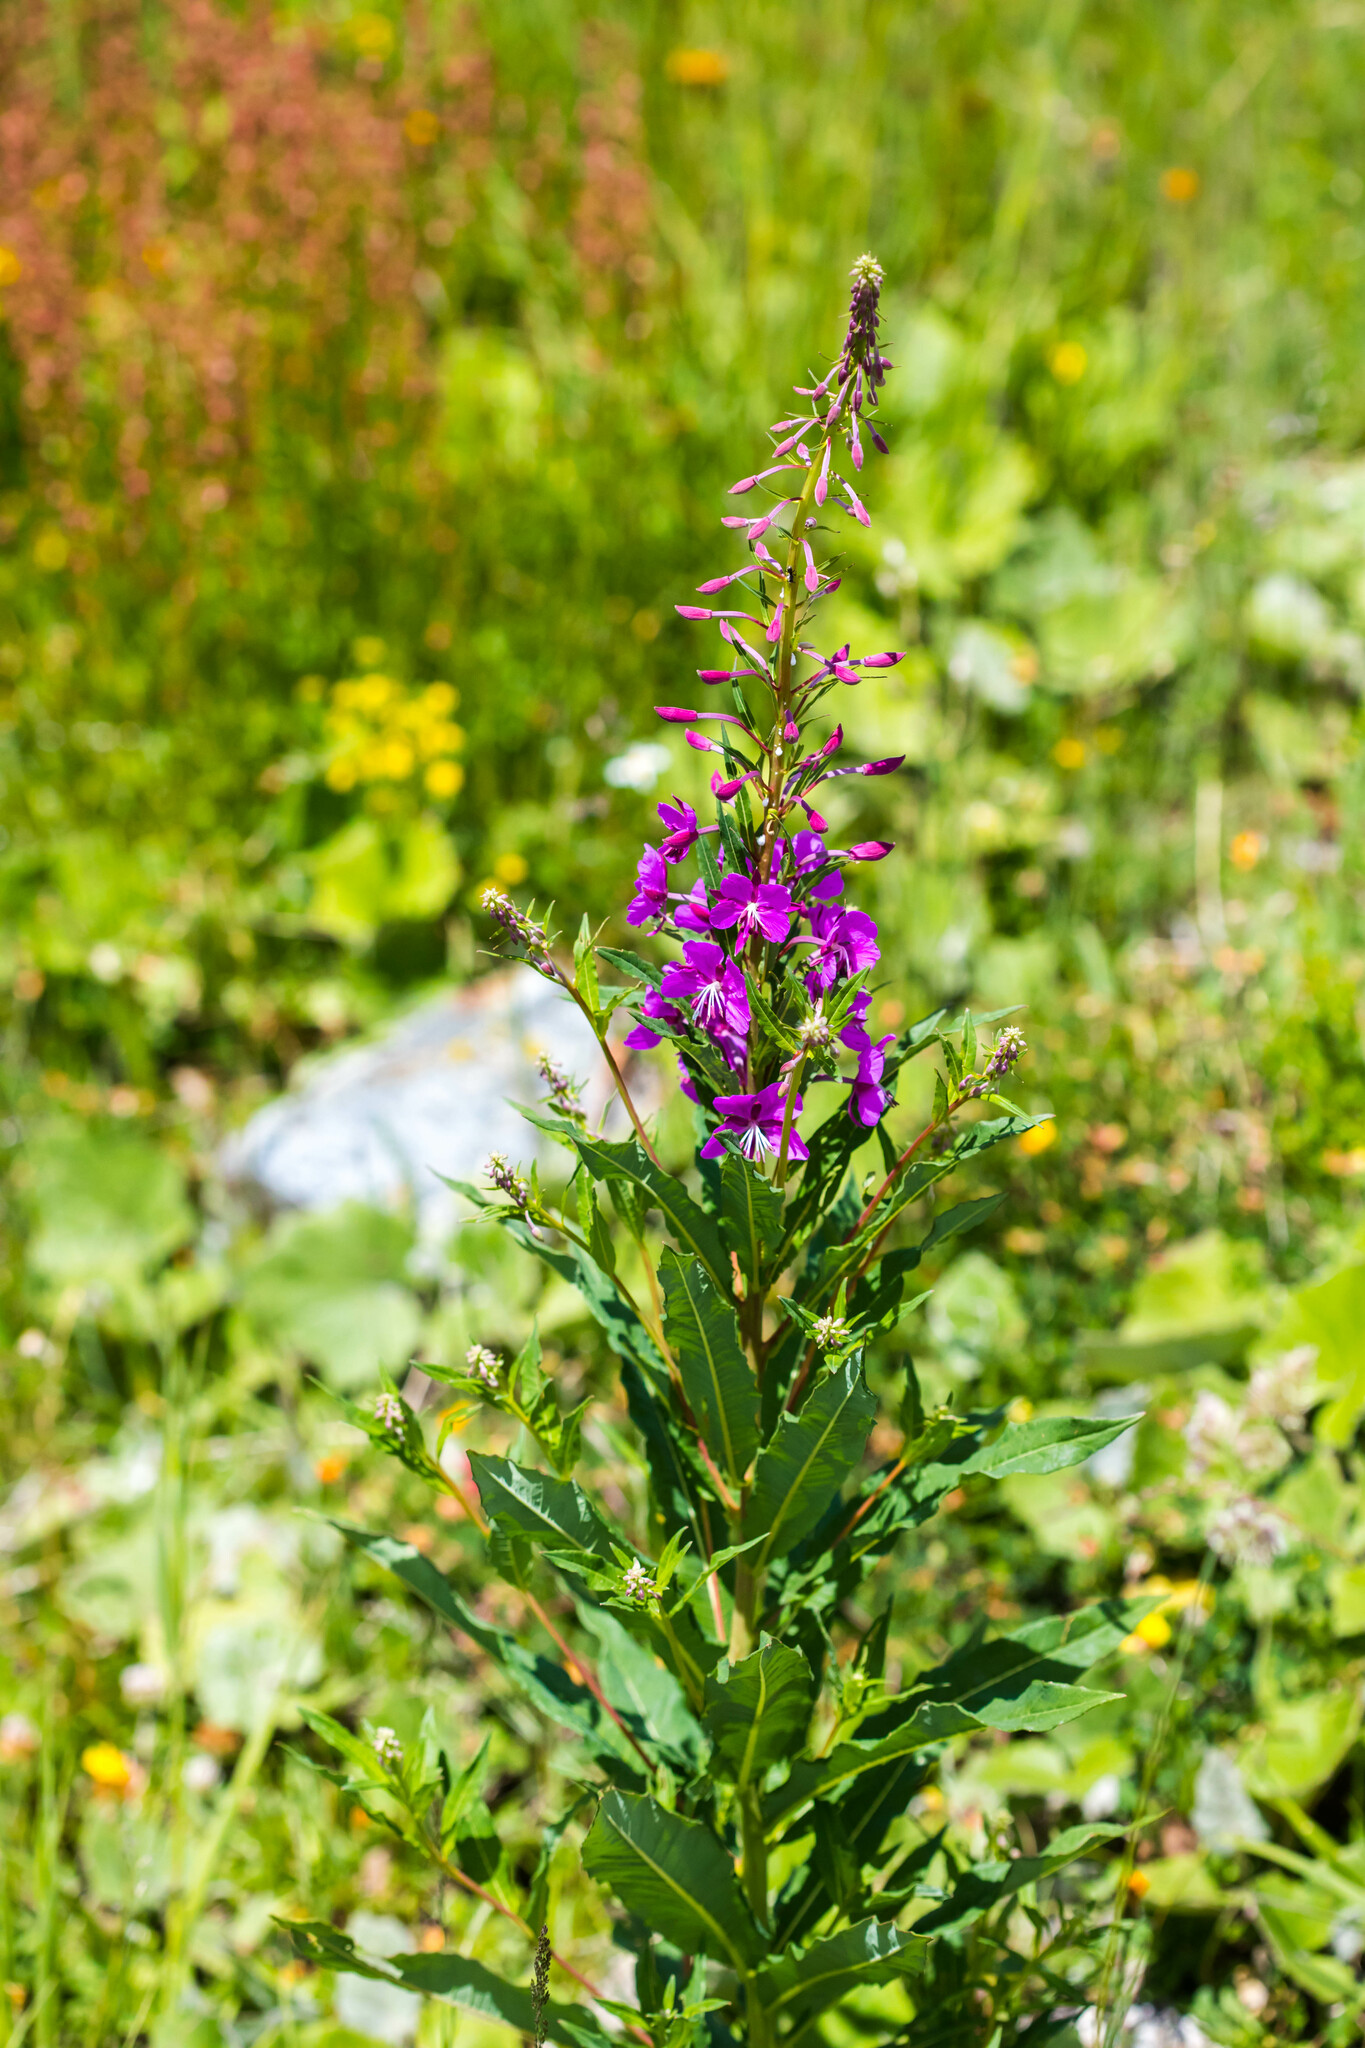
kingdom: Plantae
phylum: Tracheophyta
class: Magnoliopsida
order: Myrtales
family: Onagraceae
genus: Chamaenerion
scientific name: Chamaenerion angustifolium
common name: Fireweed
